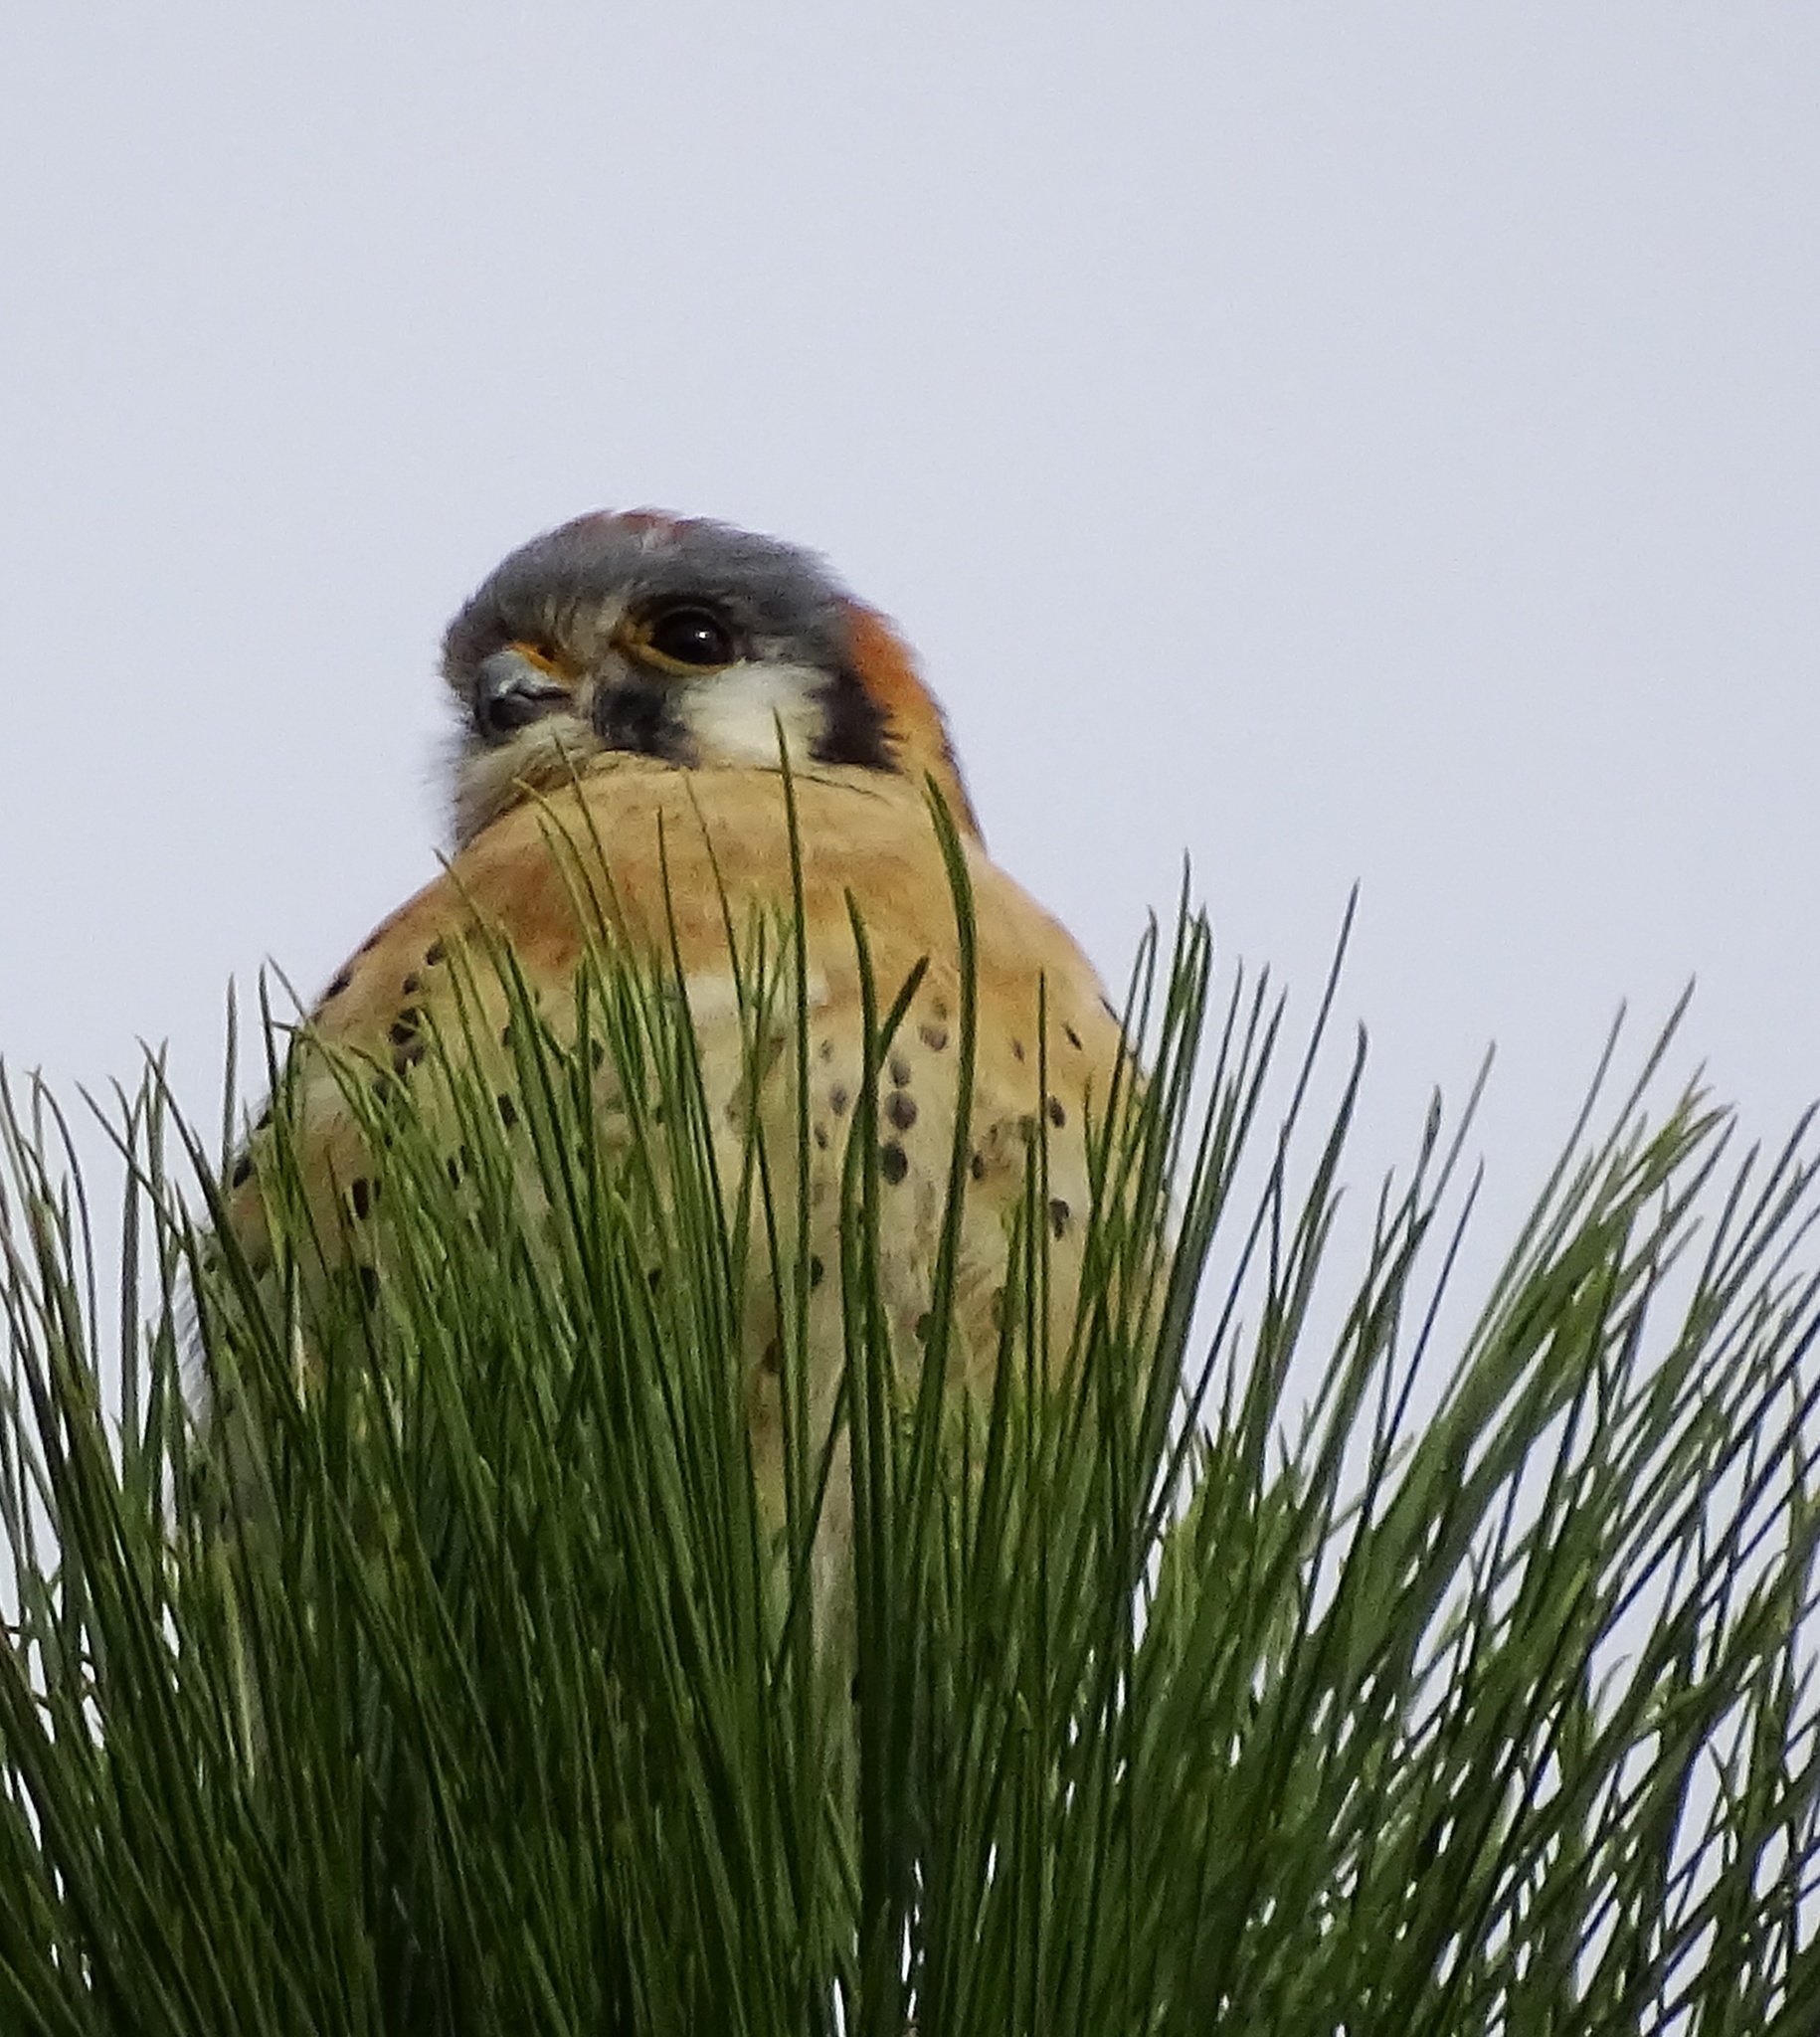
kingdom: Animalia
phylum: Chordata
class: Aves
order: Falconiformes
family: Falconidae
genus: Falco
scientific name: Falco sparverius
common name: American kestrel
